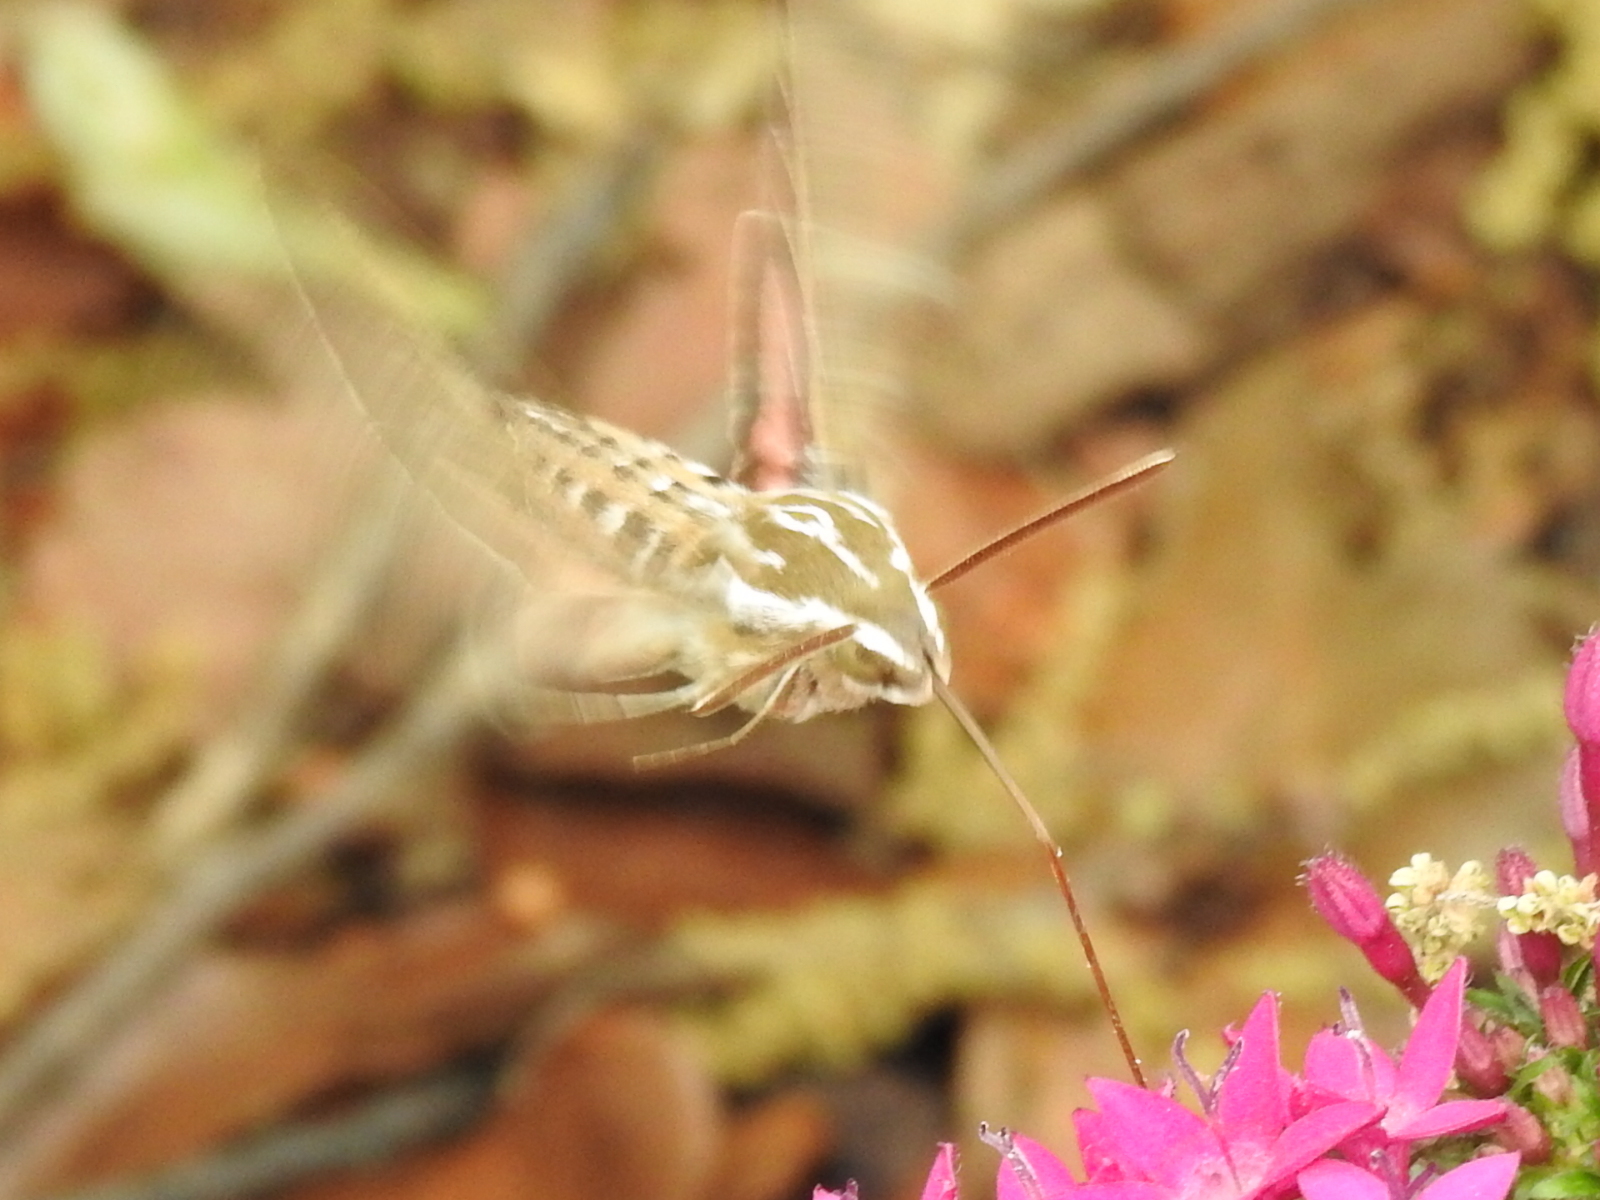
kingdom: Animalia
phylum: Arthropoda
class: Insecta
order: Lepidoptera
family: Sphingidae
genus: Hyles
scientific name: Hyles lineata
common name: White-lined sphinx
